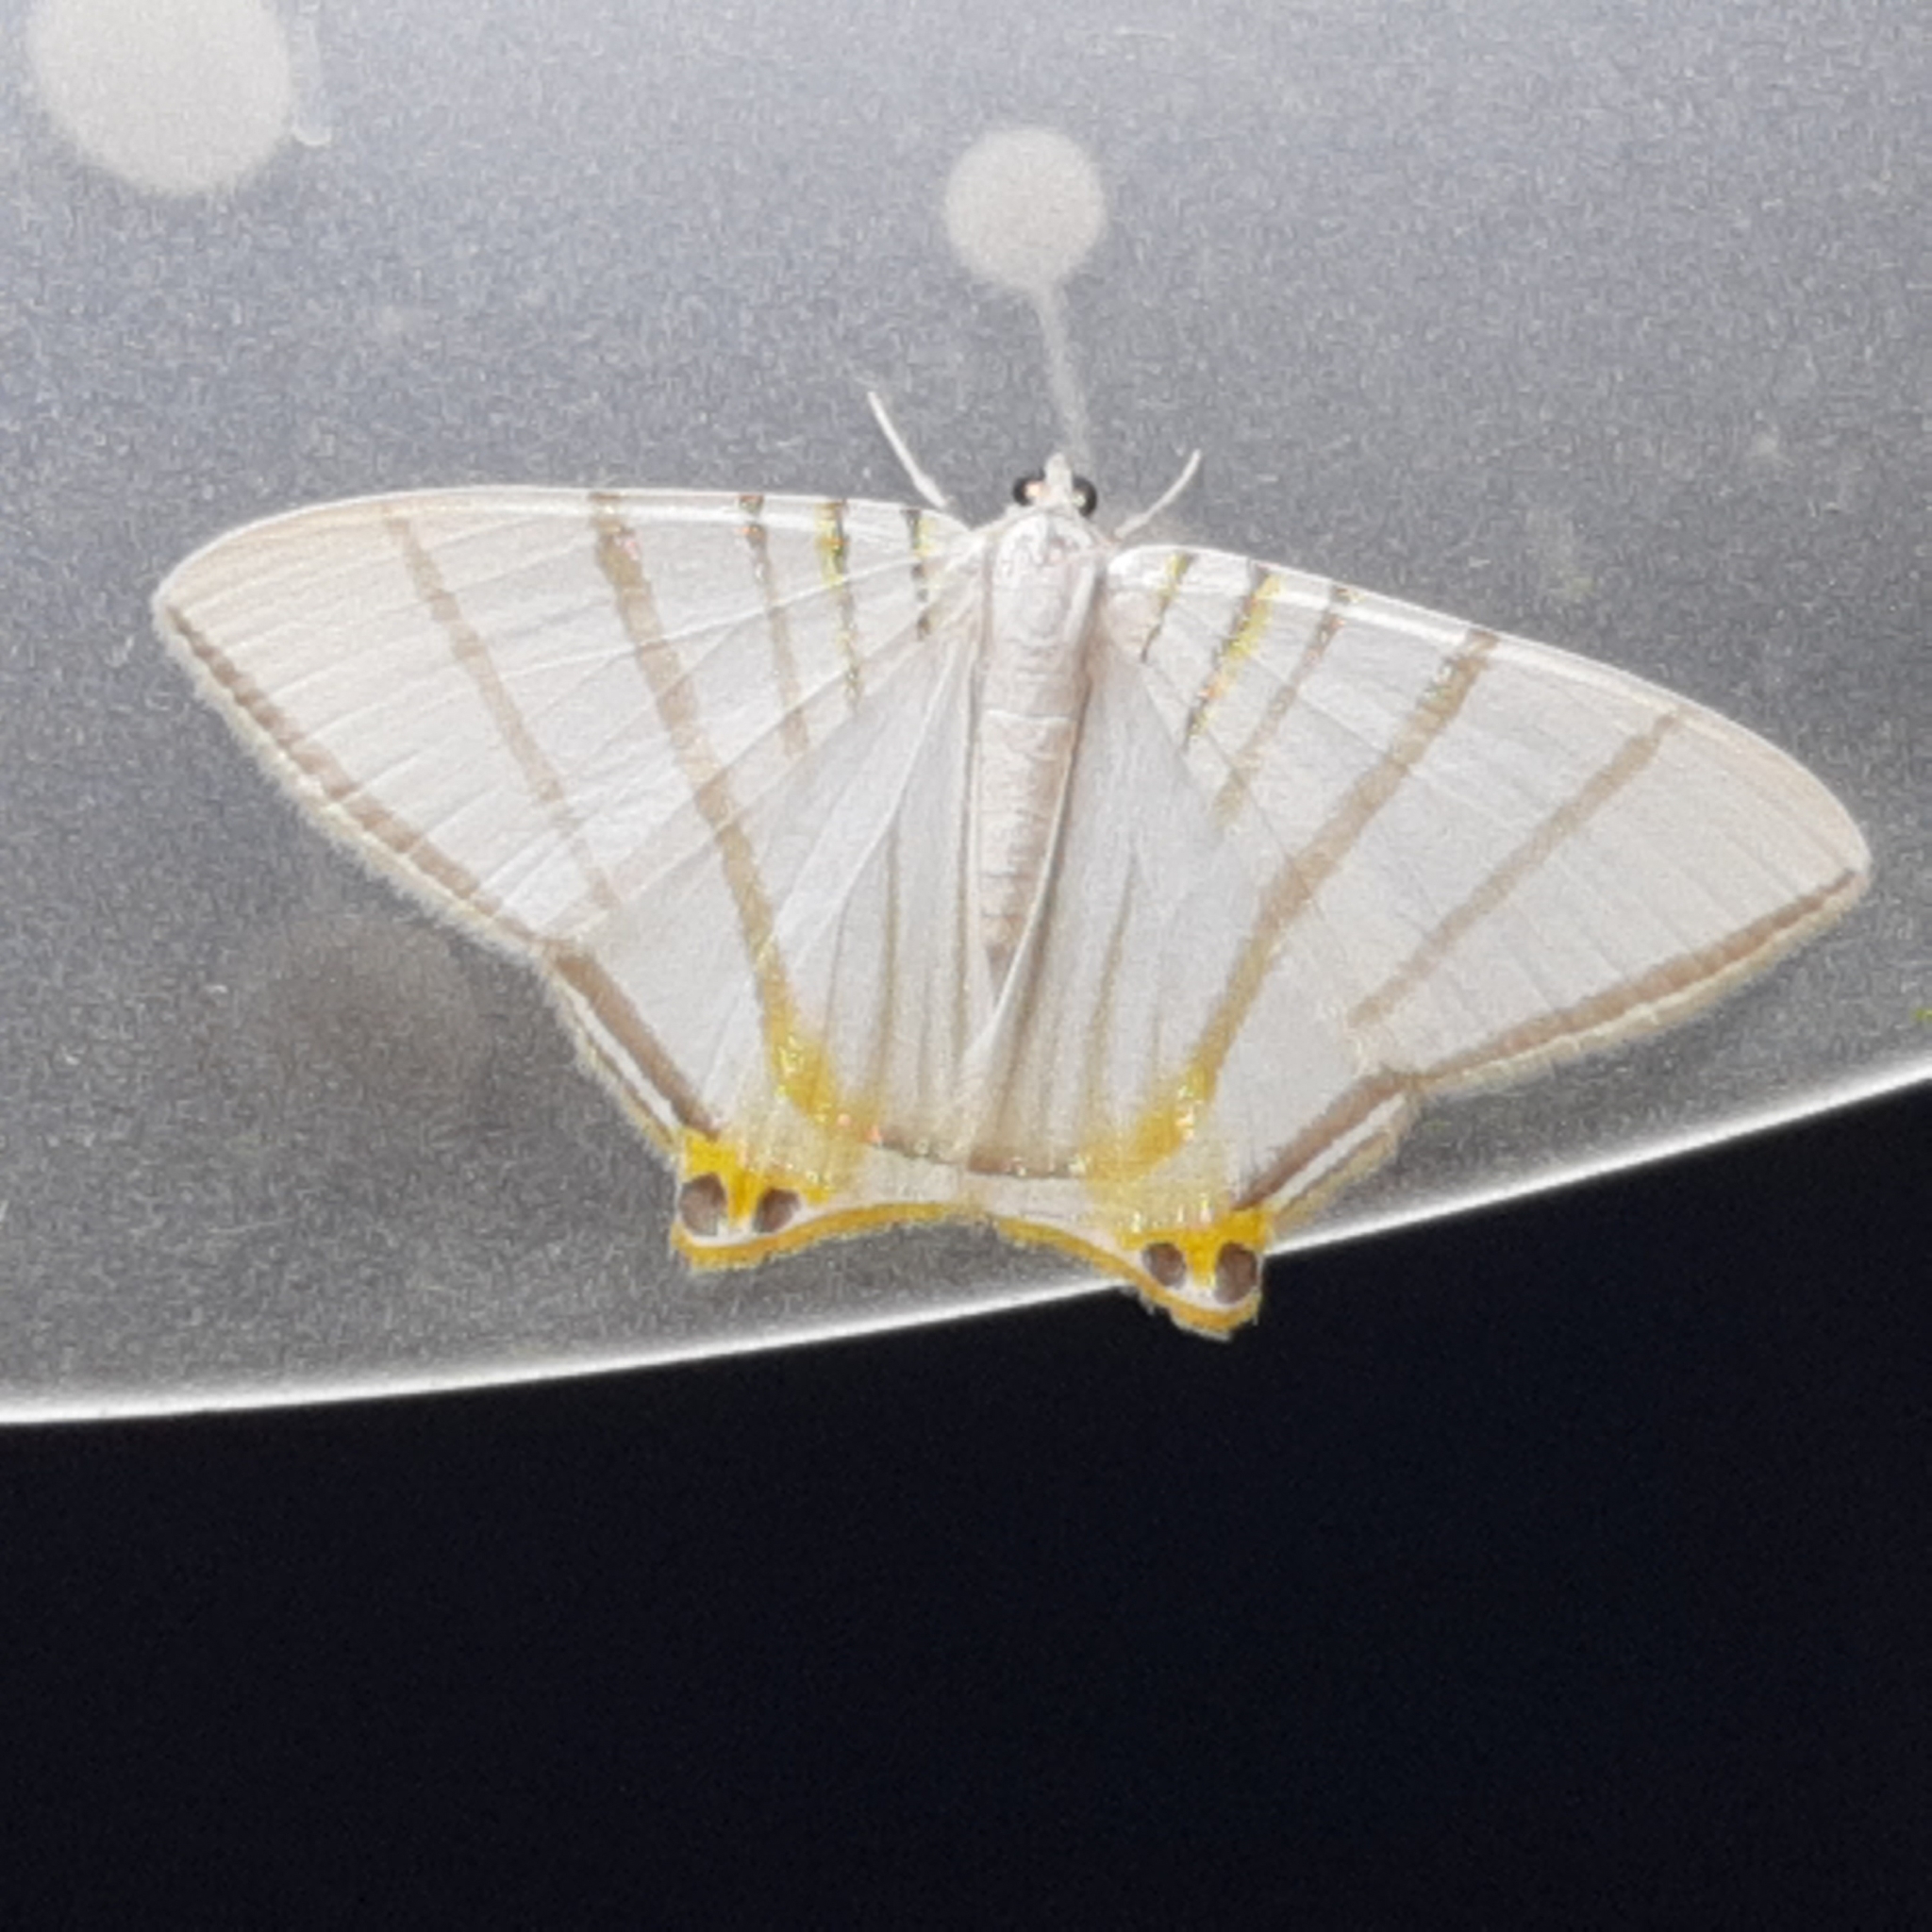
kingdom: Animalia
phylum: Arthropoda
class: Insecta
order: Lepidoptera
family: Geometridae
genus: Phrygionis
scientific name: Phrygionis platinata
